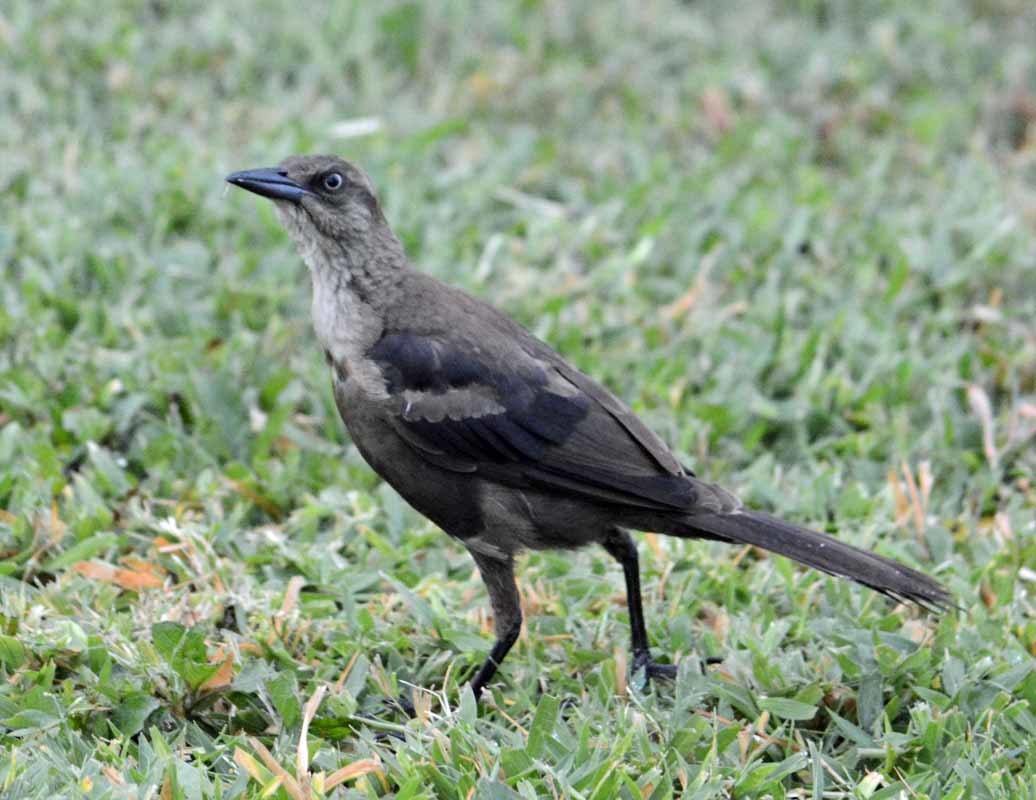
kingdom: Animalia
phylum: Chordata
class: Aves
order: Passeriformes
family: Icteridae
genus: Quiscalus
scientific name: Quiscalus mexicanus
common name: Great-tailed grackle
